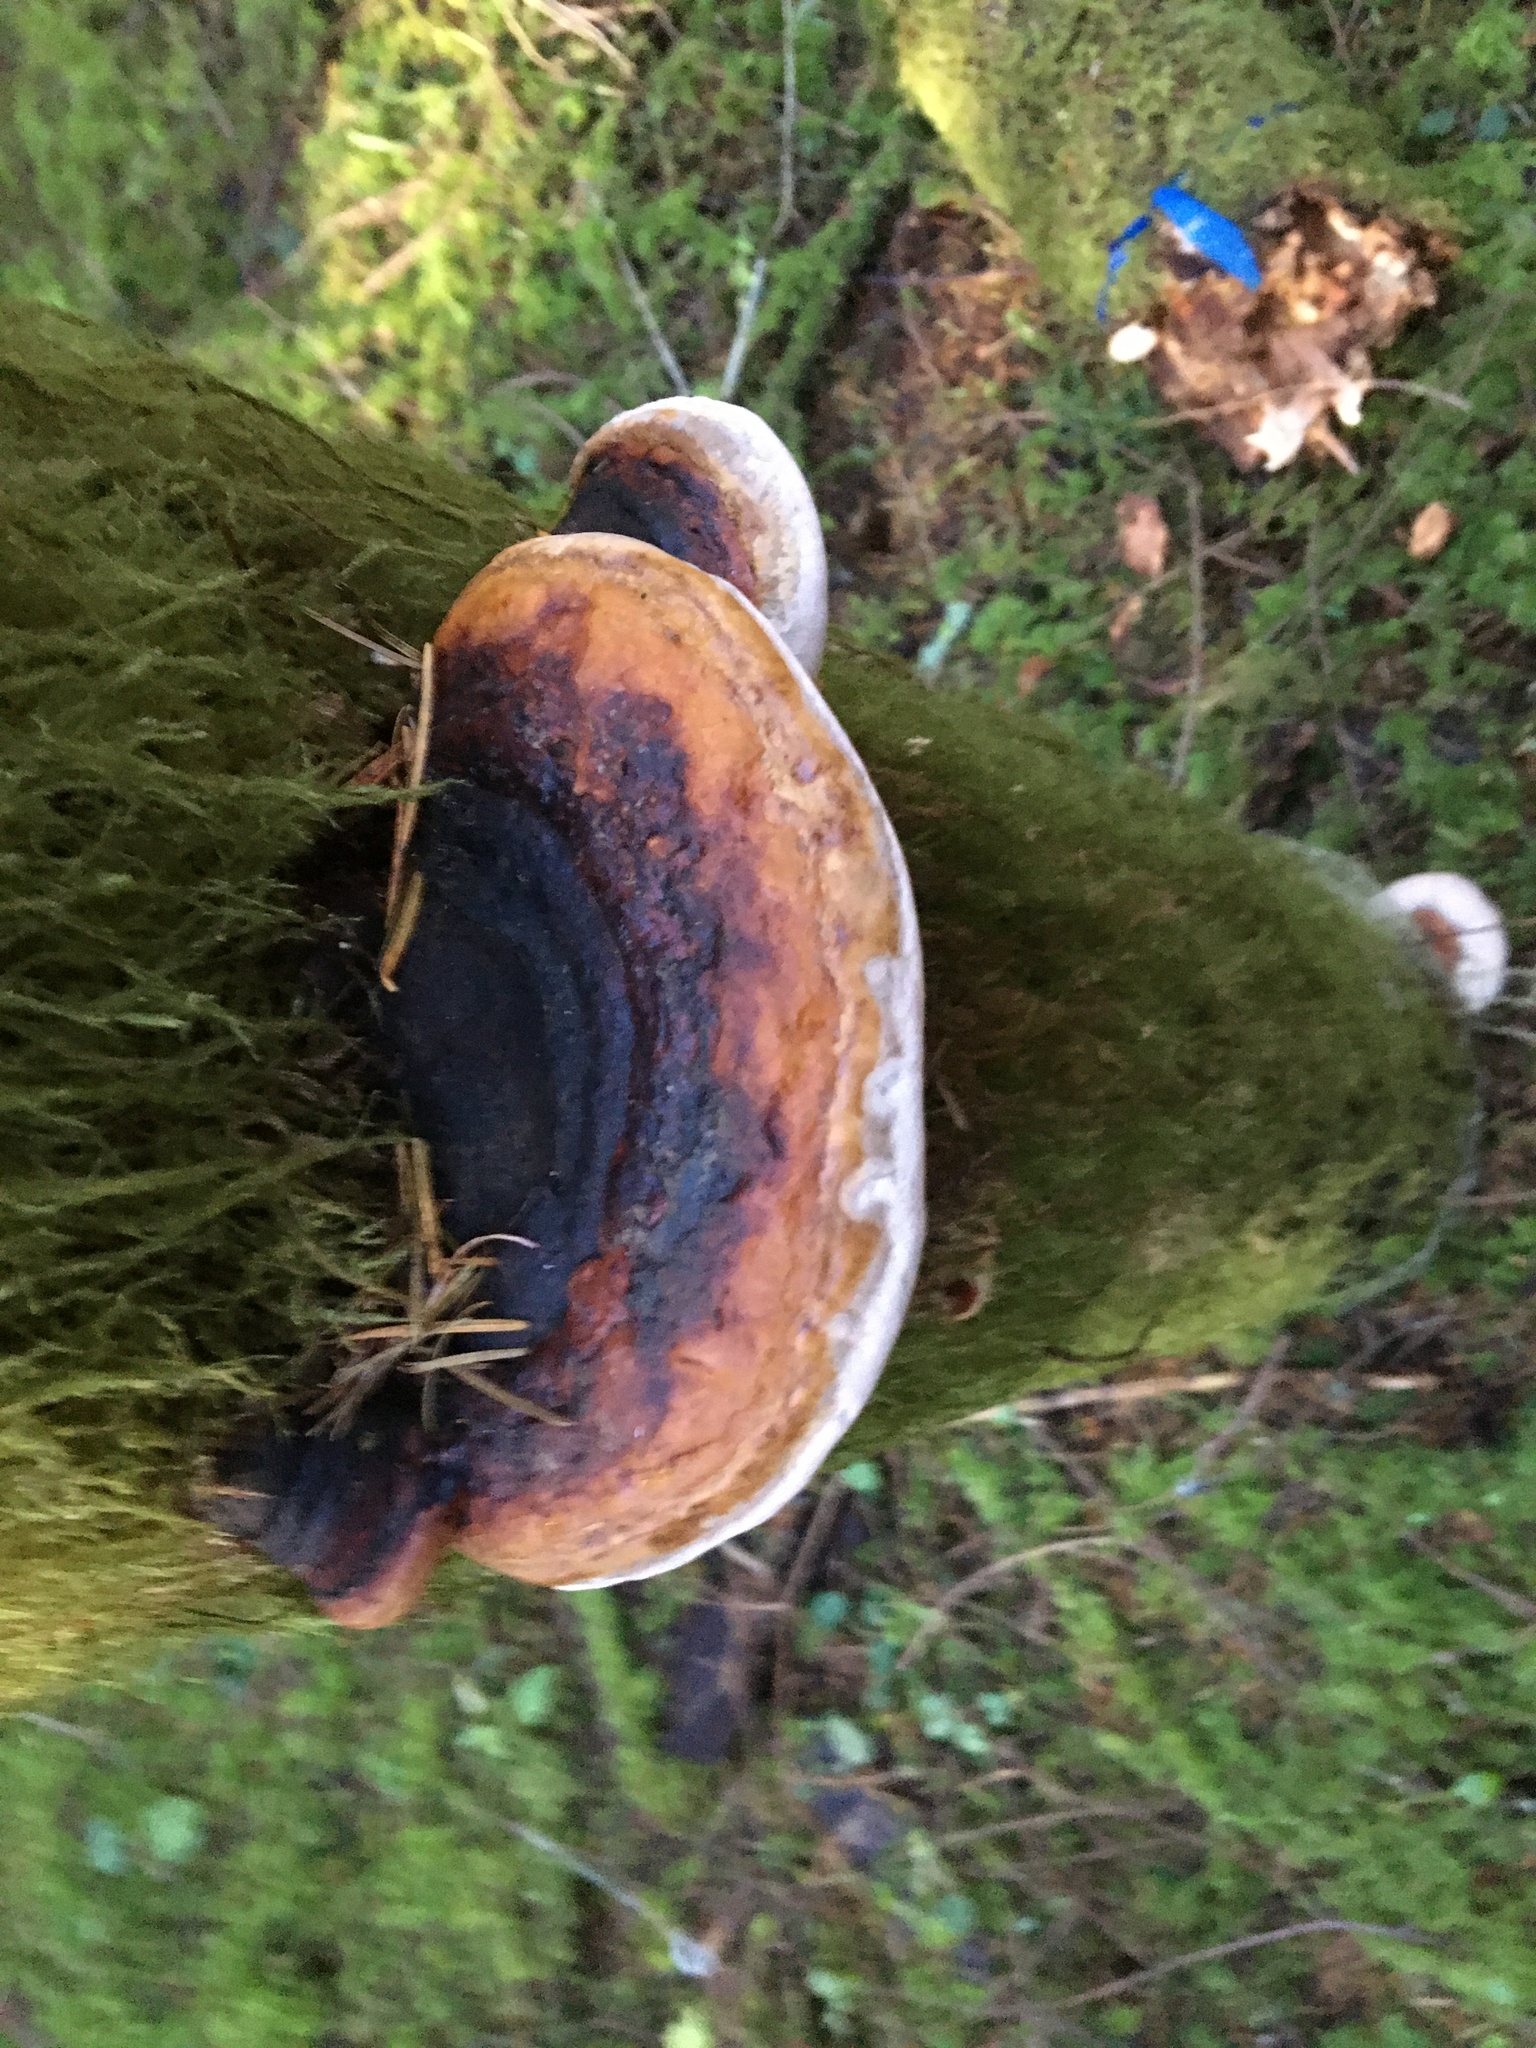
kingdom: Fungi
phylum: Basidiomycota
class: Agaricomycetes
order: Polyporales
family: Fomitopsidaceae
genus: Fomitopsis
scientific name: Fomitopsis mounceae
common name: Northern red belt
